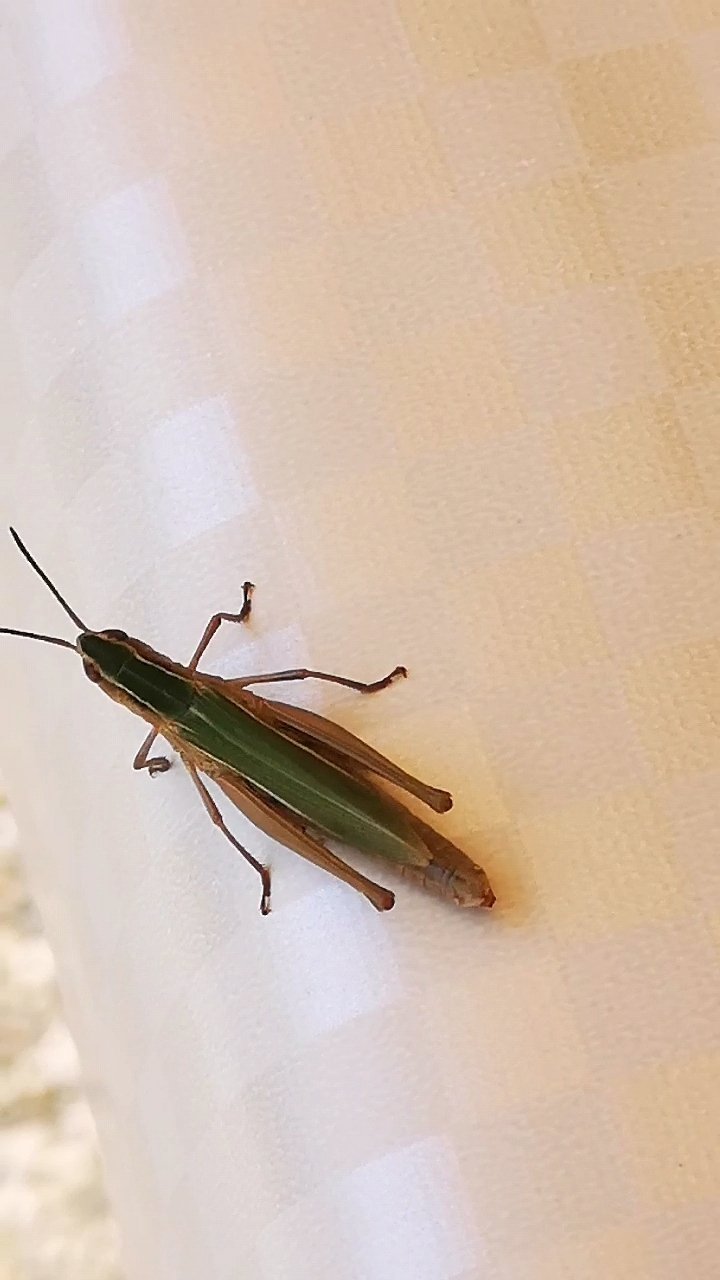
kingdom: Animalia
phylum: Arthropoda
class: Insecta
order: Orthoptera
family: Acrididae
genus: Chorthippus
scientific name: Chorthippus albomarginatus
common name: Lesser marsh grasshopper
